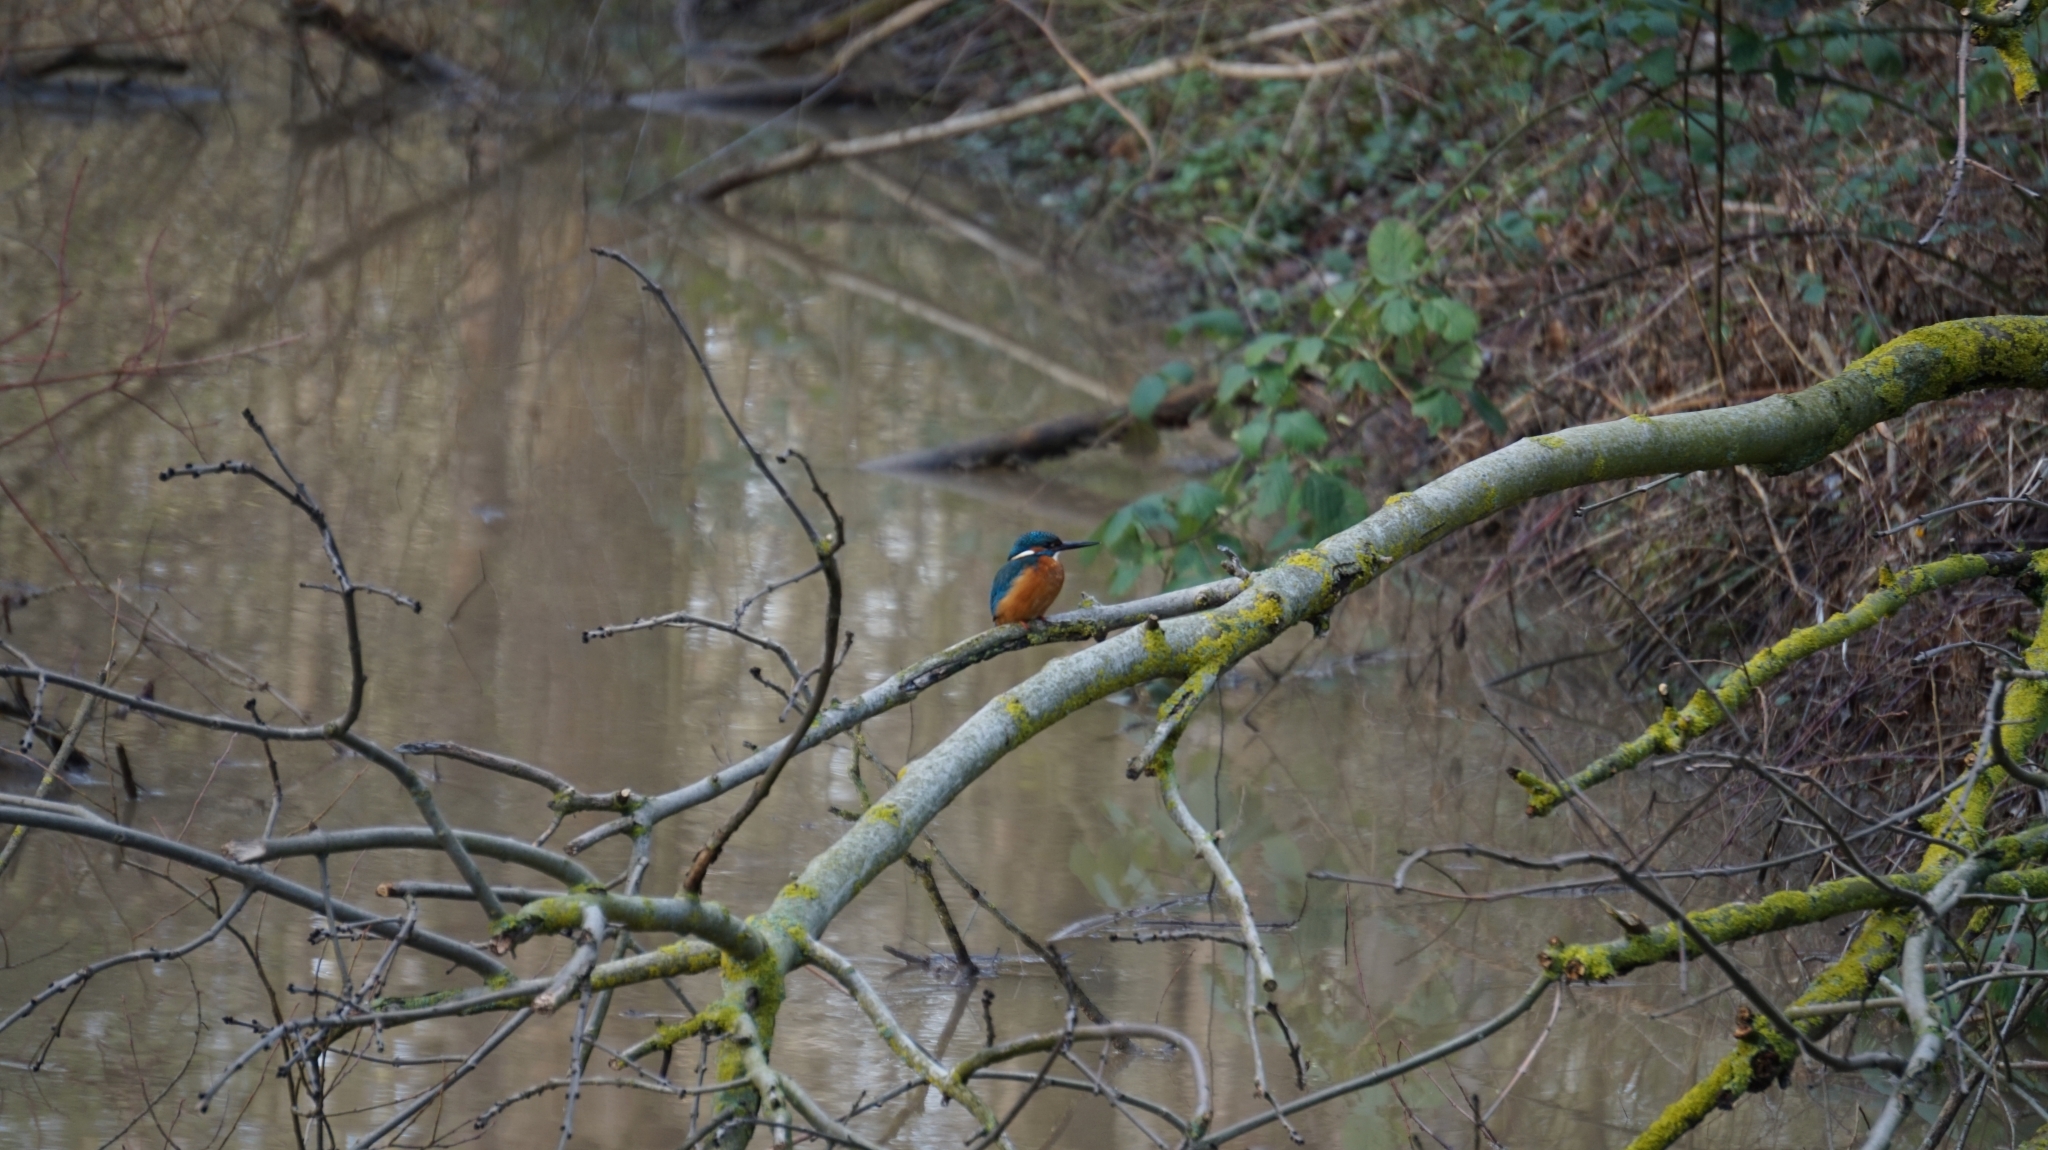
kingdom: Animalia
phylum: Chordata
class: Aves
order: Coraciiformes
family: Alcedinidae
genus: Alcedo
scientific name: Alcedo atthis
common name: Common kingfisher
